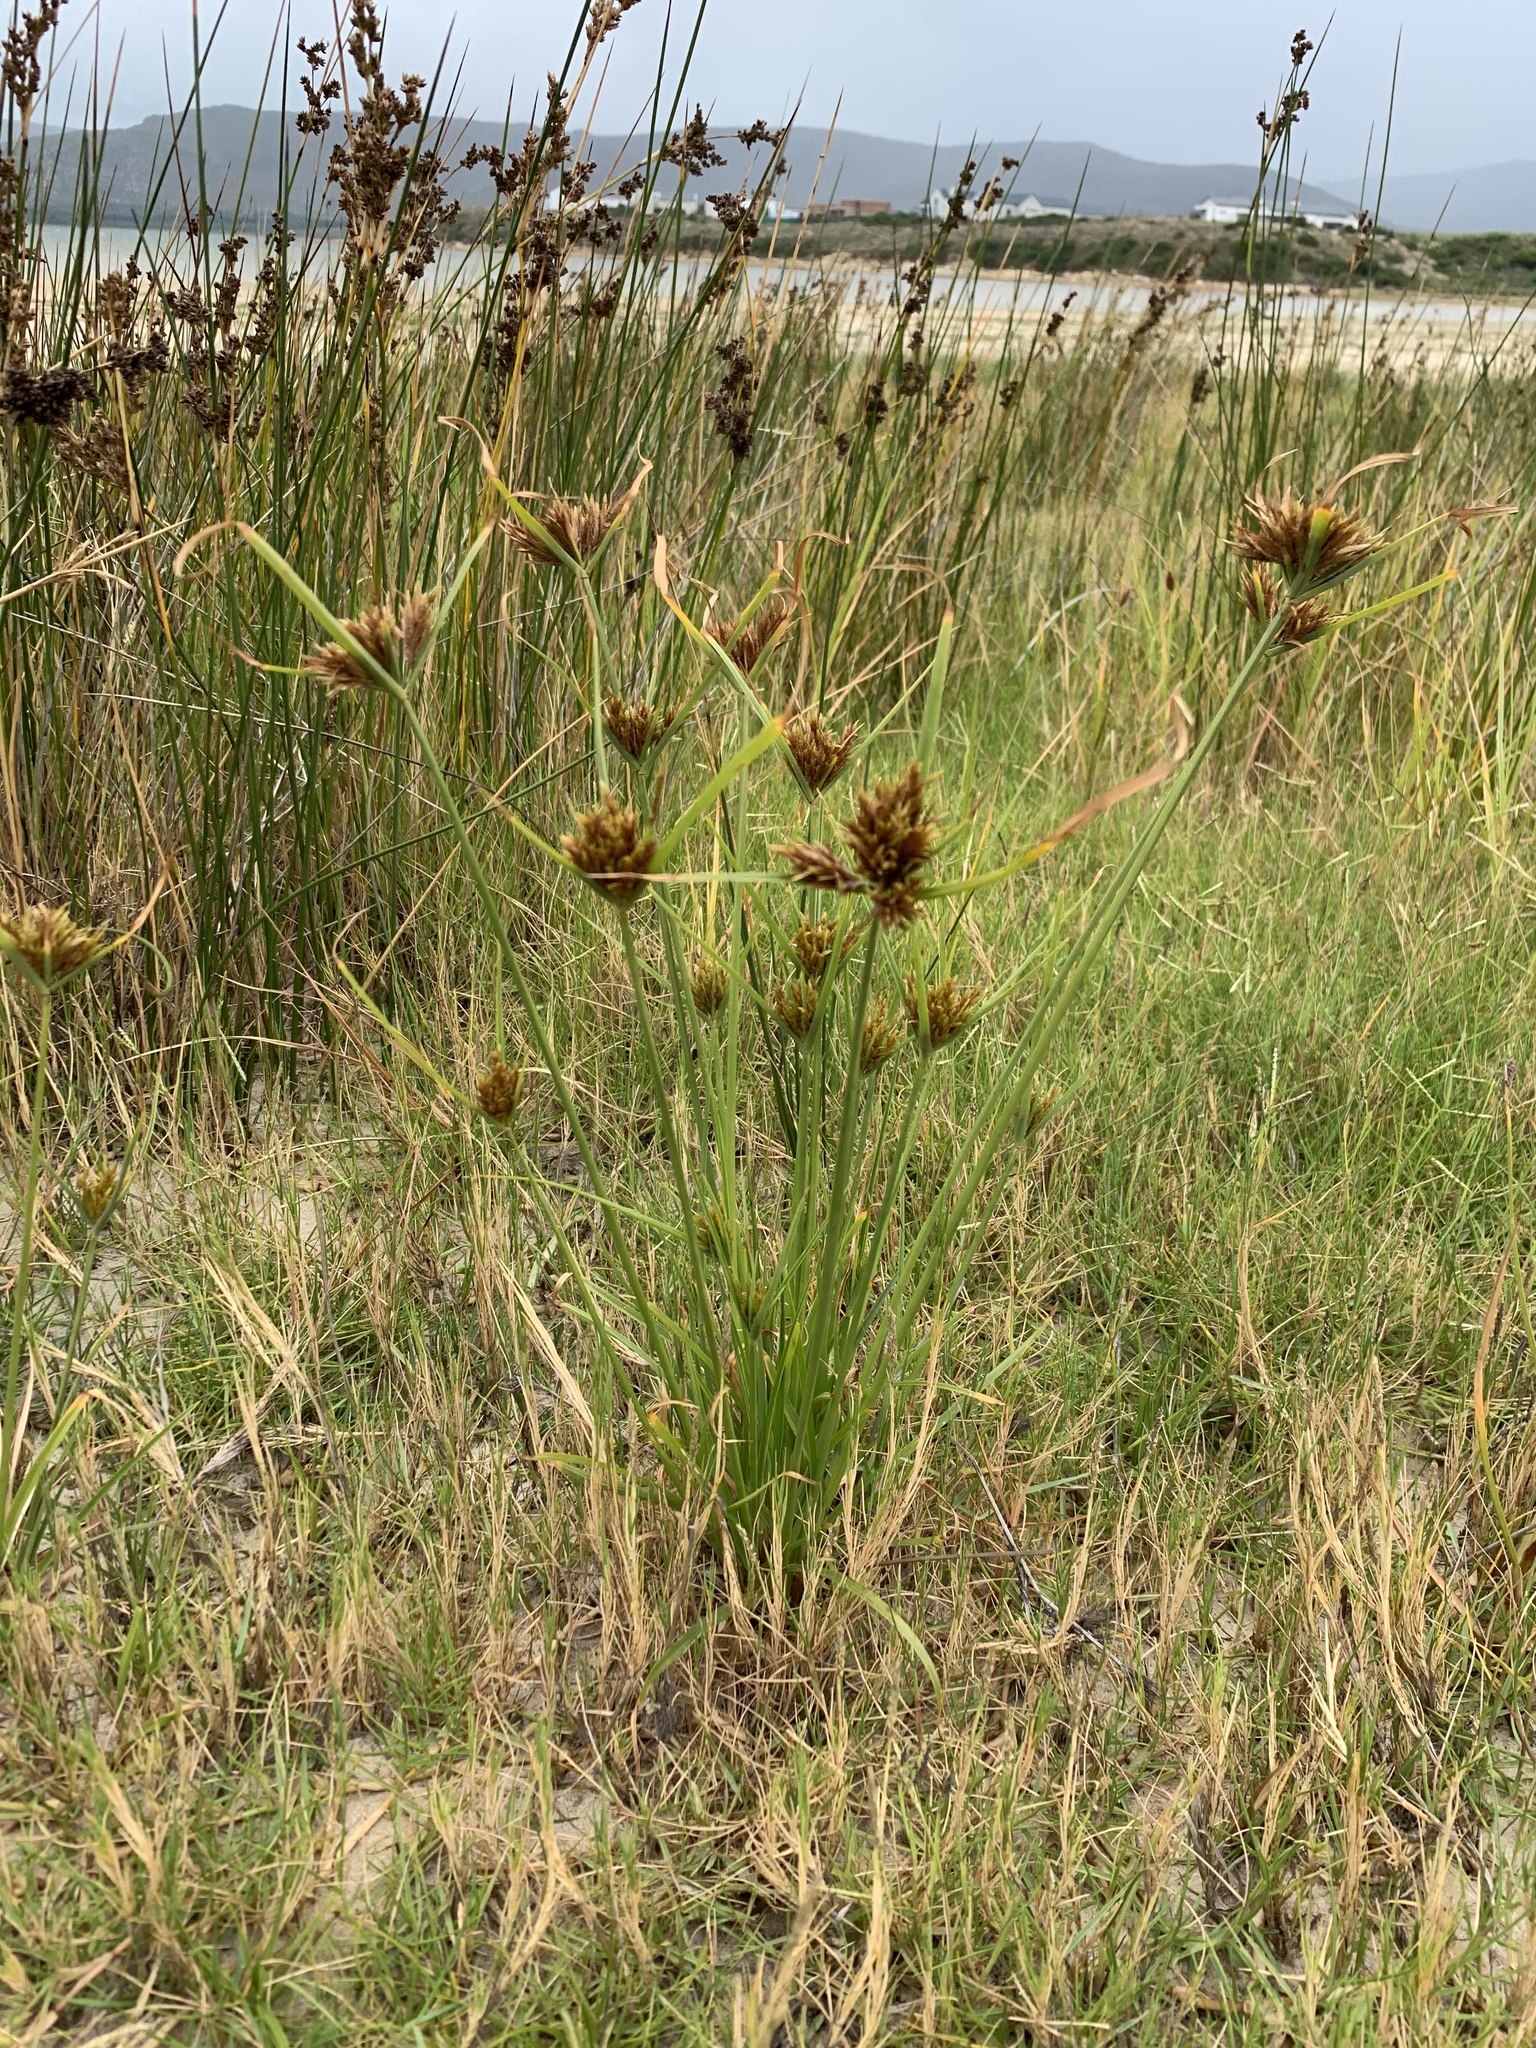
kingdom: Plantae
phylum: Tracheophyta
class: Liliopsida
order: Poales
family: Cyperaceae
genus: Cyperus
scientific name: Cyperus polystachyos
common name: Bunchy flat sedge
